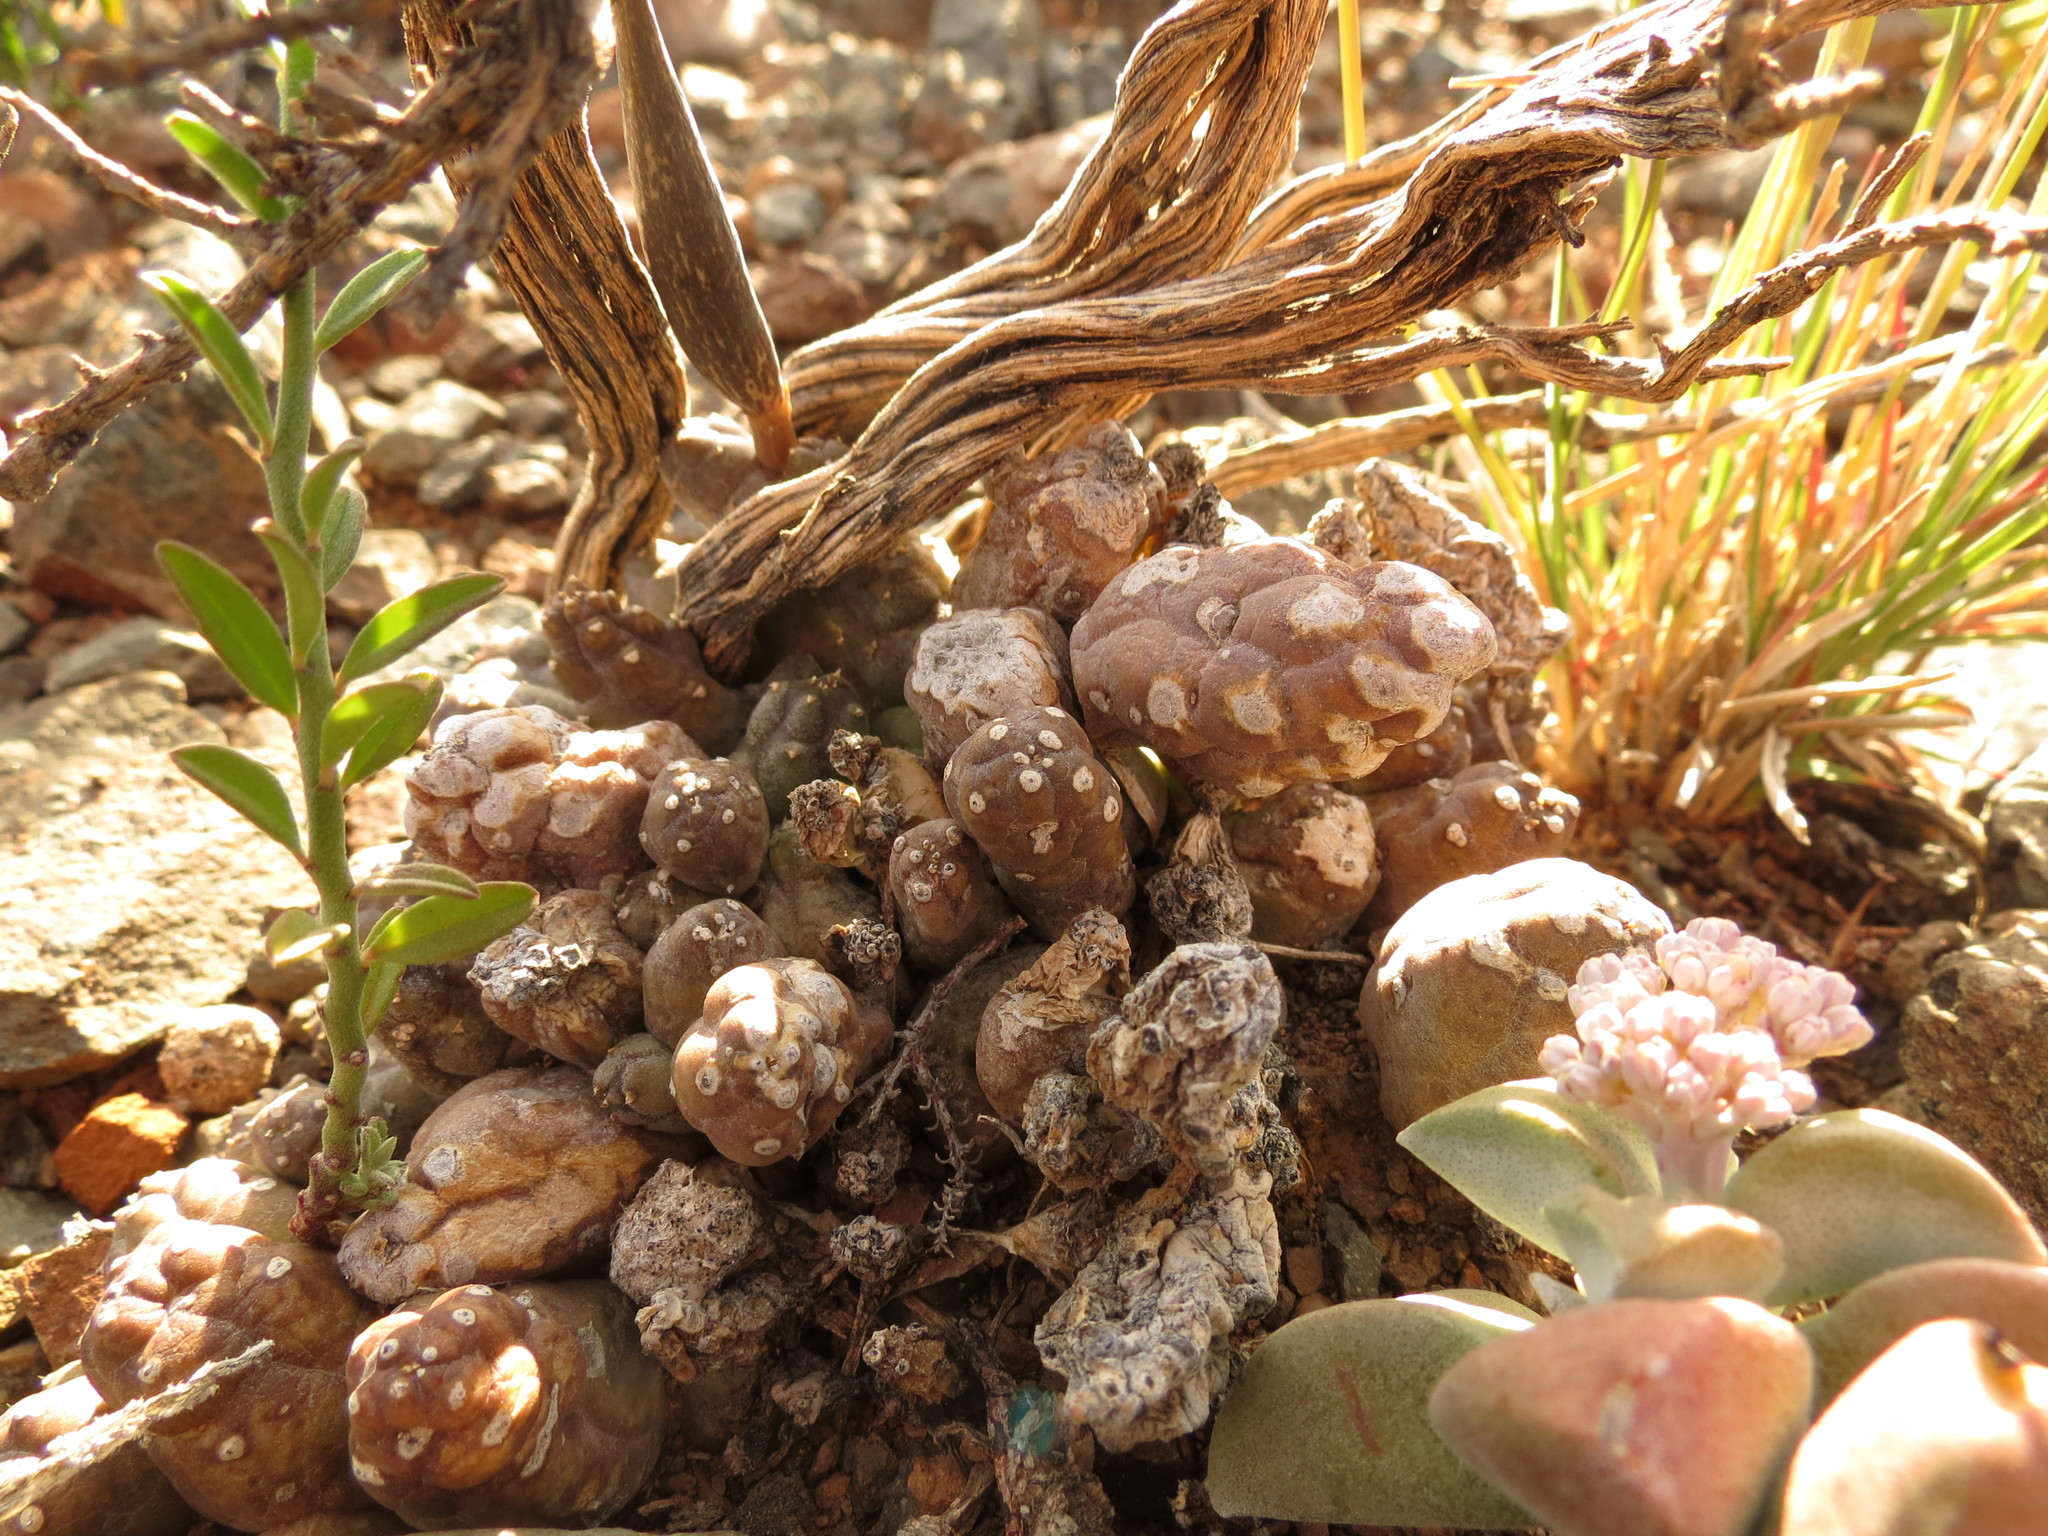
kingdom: Plantae
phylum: Tracheophyta
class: Magnoliopsida
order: Gentianales
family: Apocynaceae
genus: Ceropegia
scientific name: Ceropegia compta
